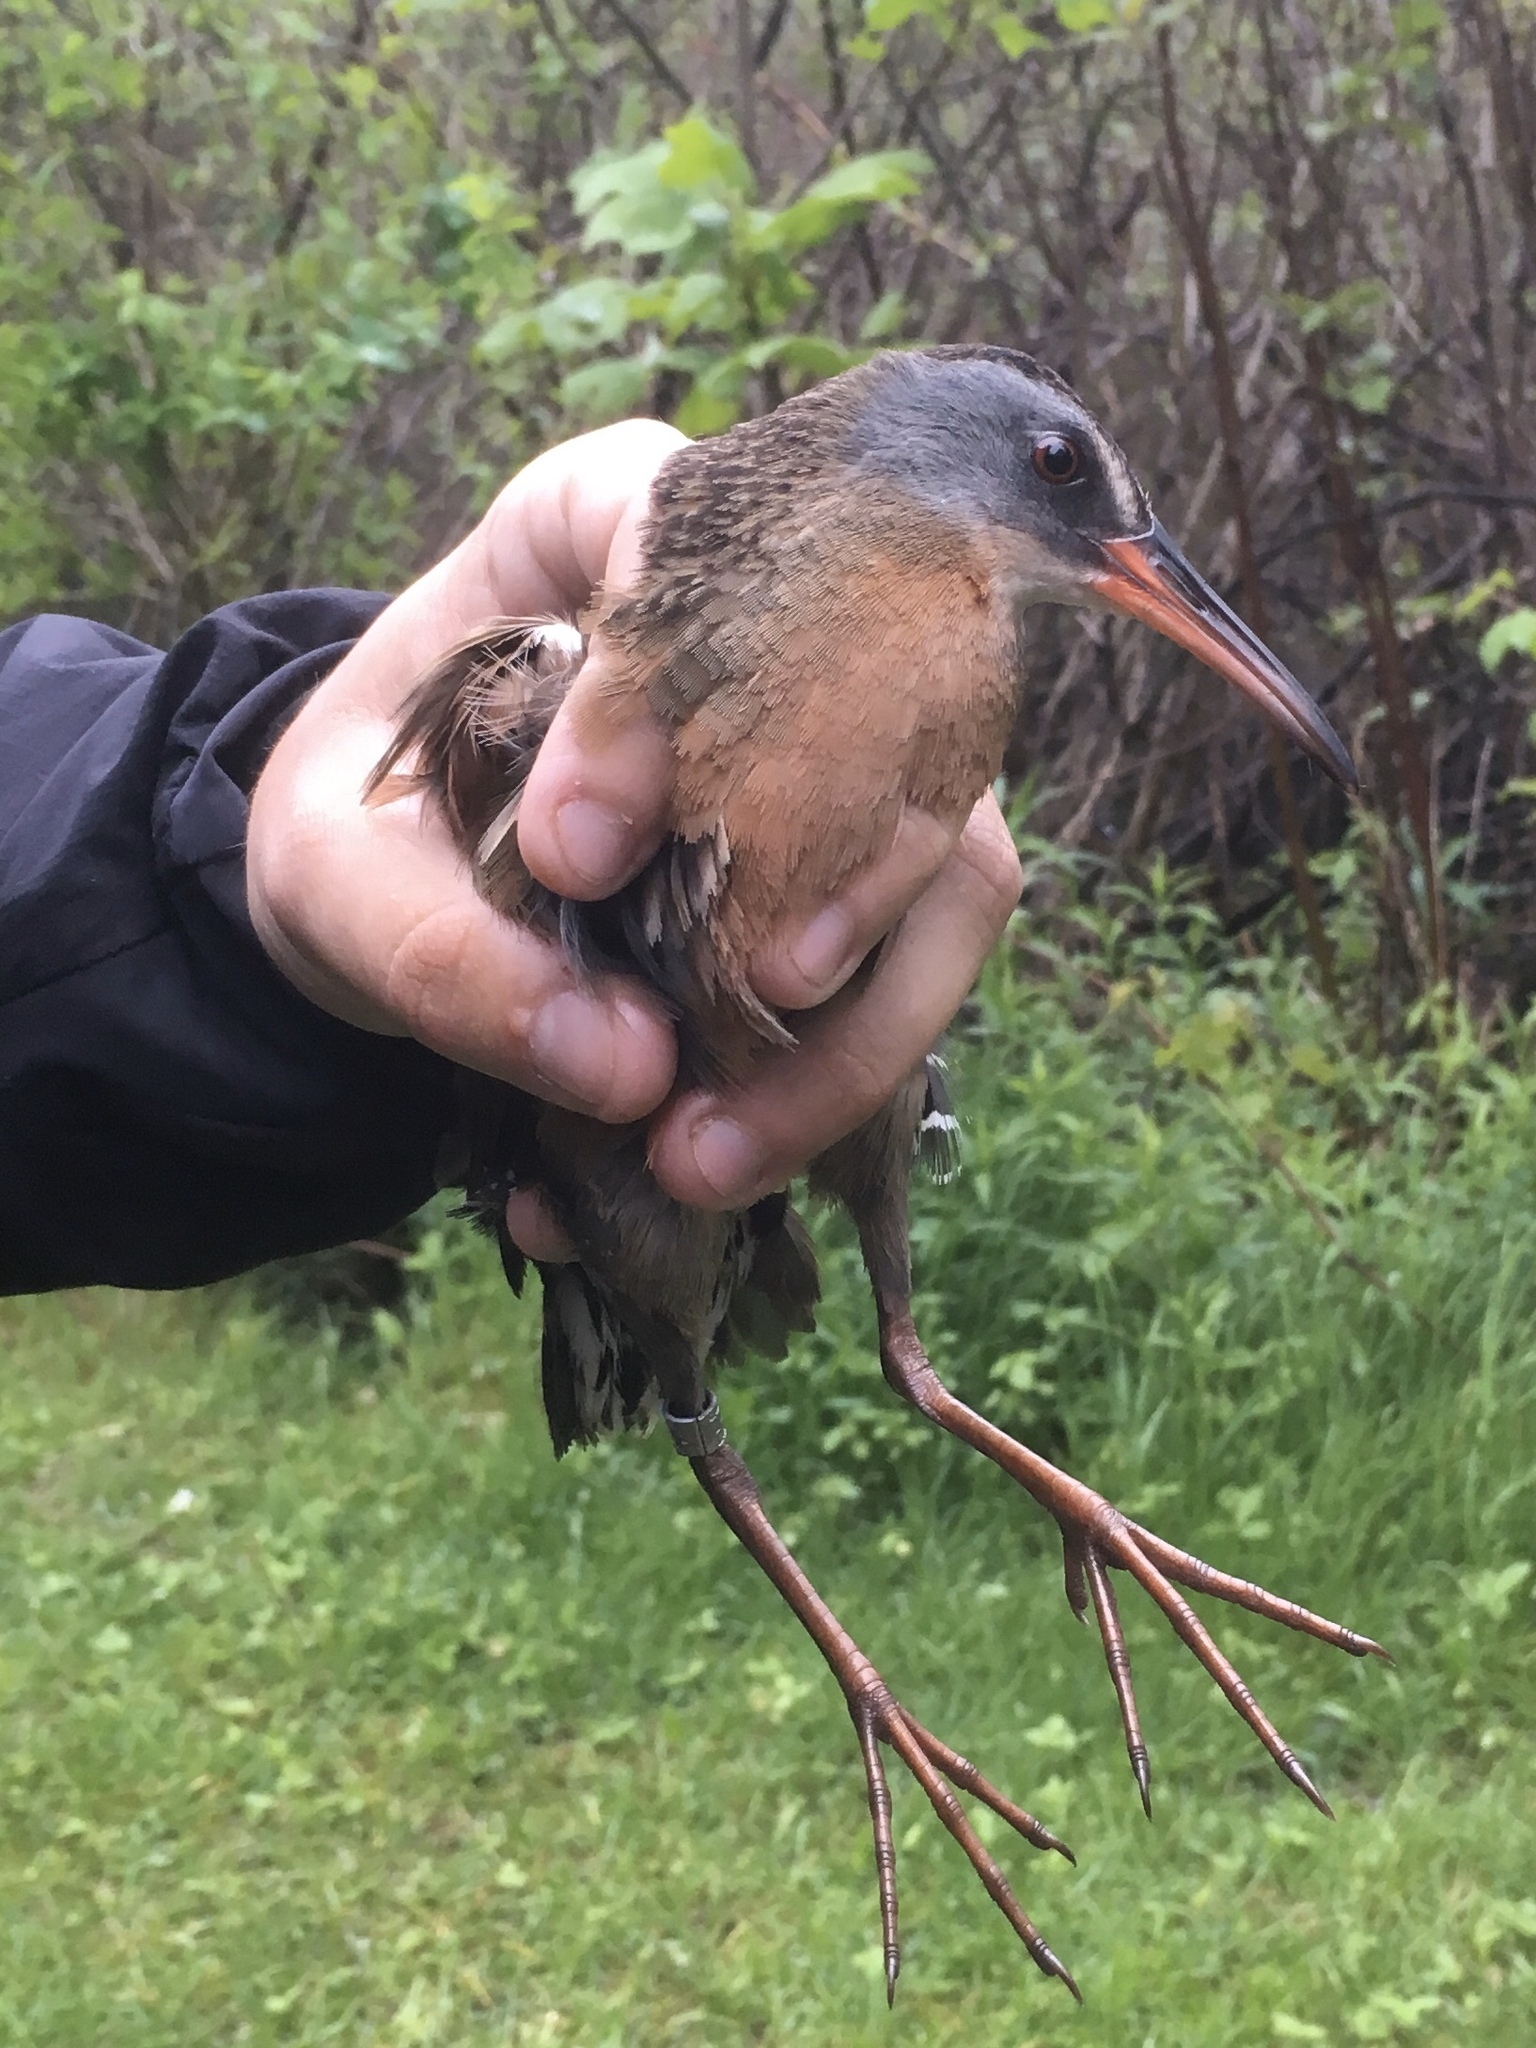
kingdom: Animalia
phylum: Chordata
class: Aves
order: Gruiformes
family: Rallidae
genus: Rallus
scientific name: Rallus limicola
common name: Virginia rail
